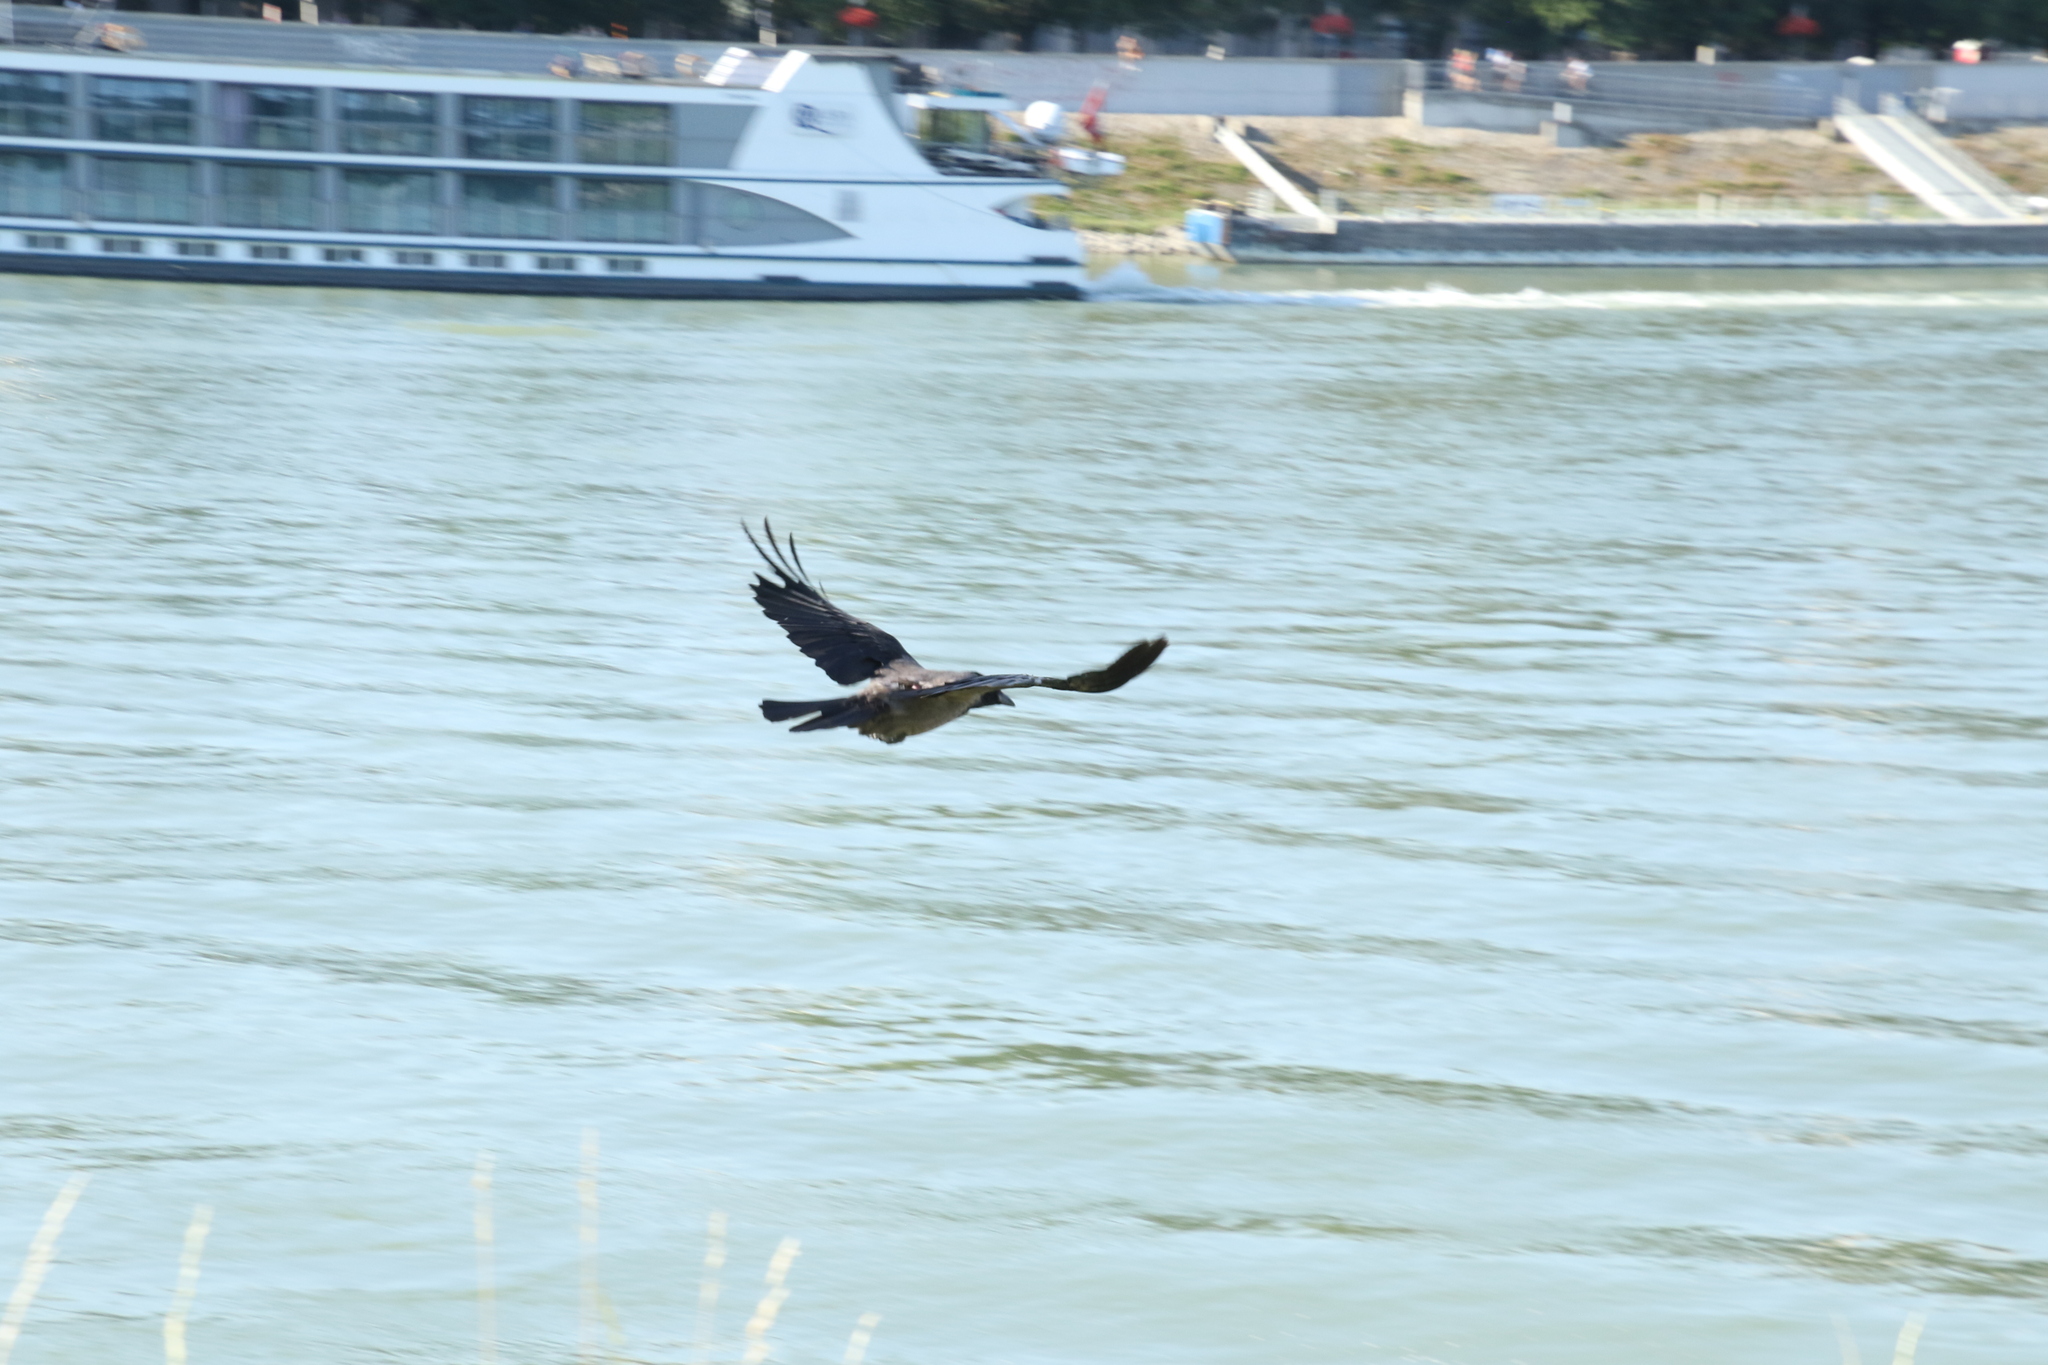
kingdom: Animalia
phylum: Chordata
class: Aves
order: Passeriformes
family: Corvidae
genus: Corvus
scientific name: Corvus cornix
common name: Hooded crow
